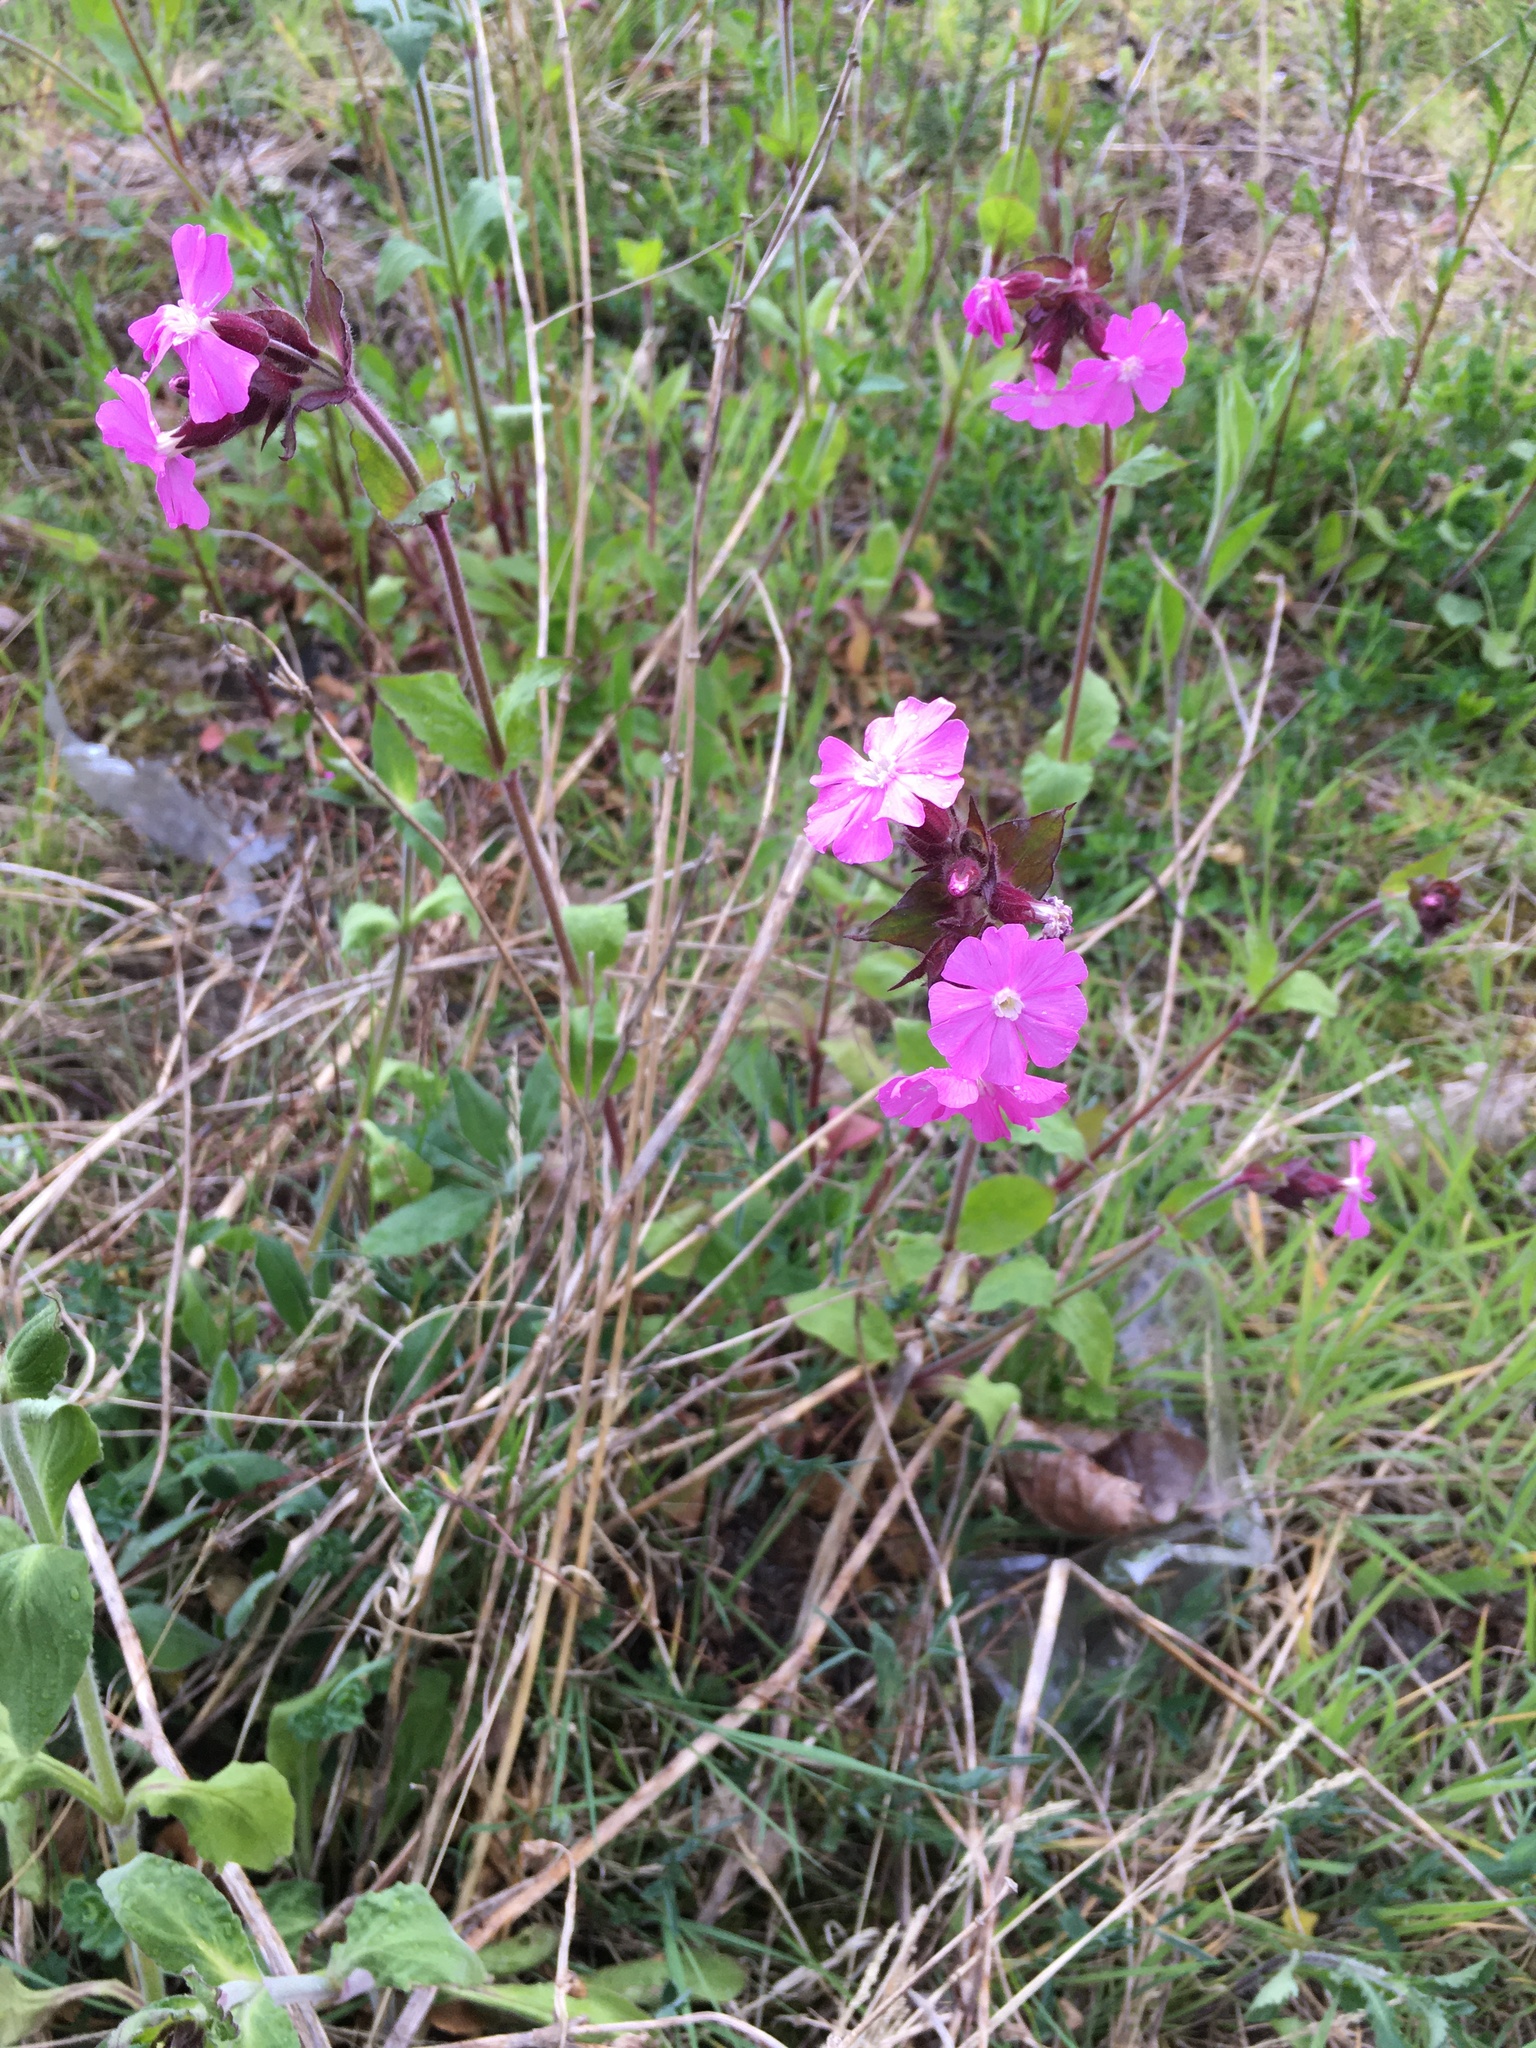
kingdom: Plantae
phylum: Tracheophyta
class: Magnoliopsida
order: Caryophyllales
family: Caryophyllaceae
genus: Silene
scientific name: Silene dioica
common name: Red campion
